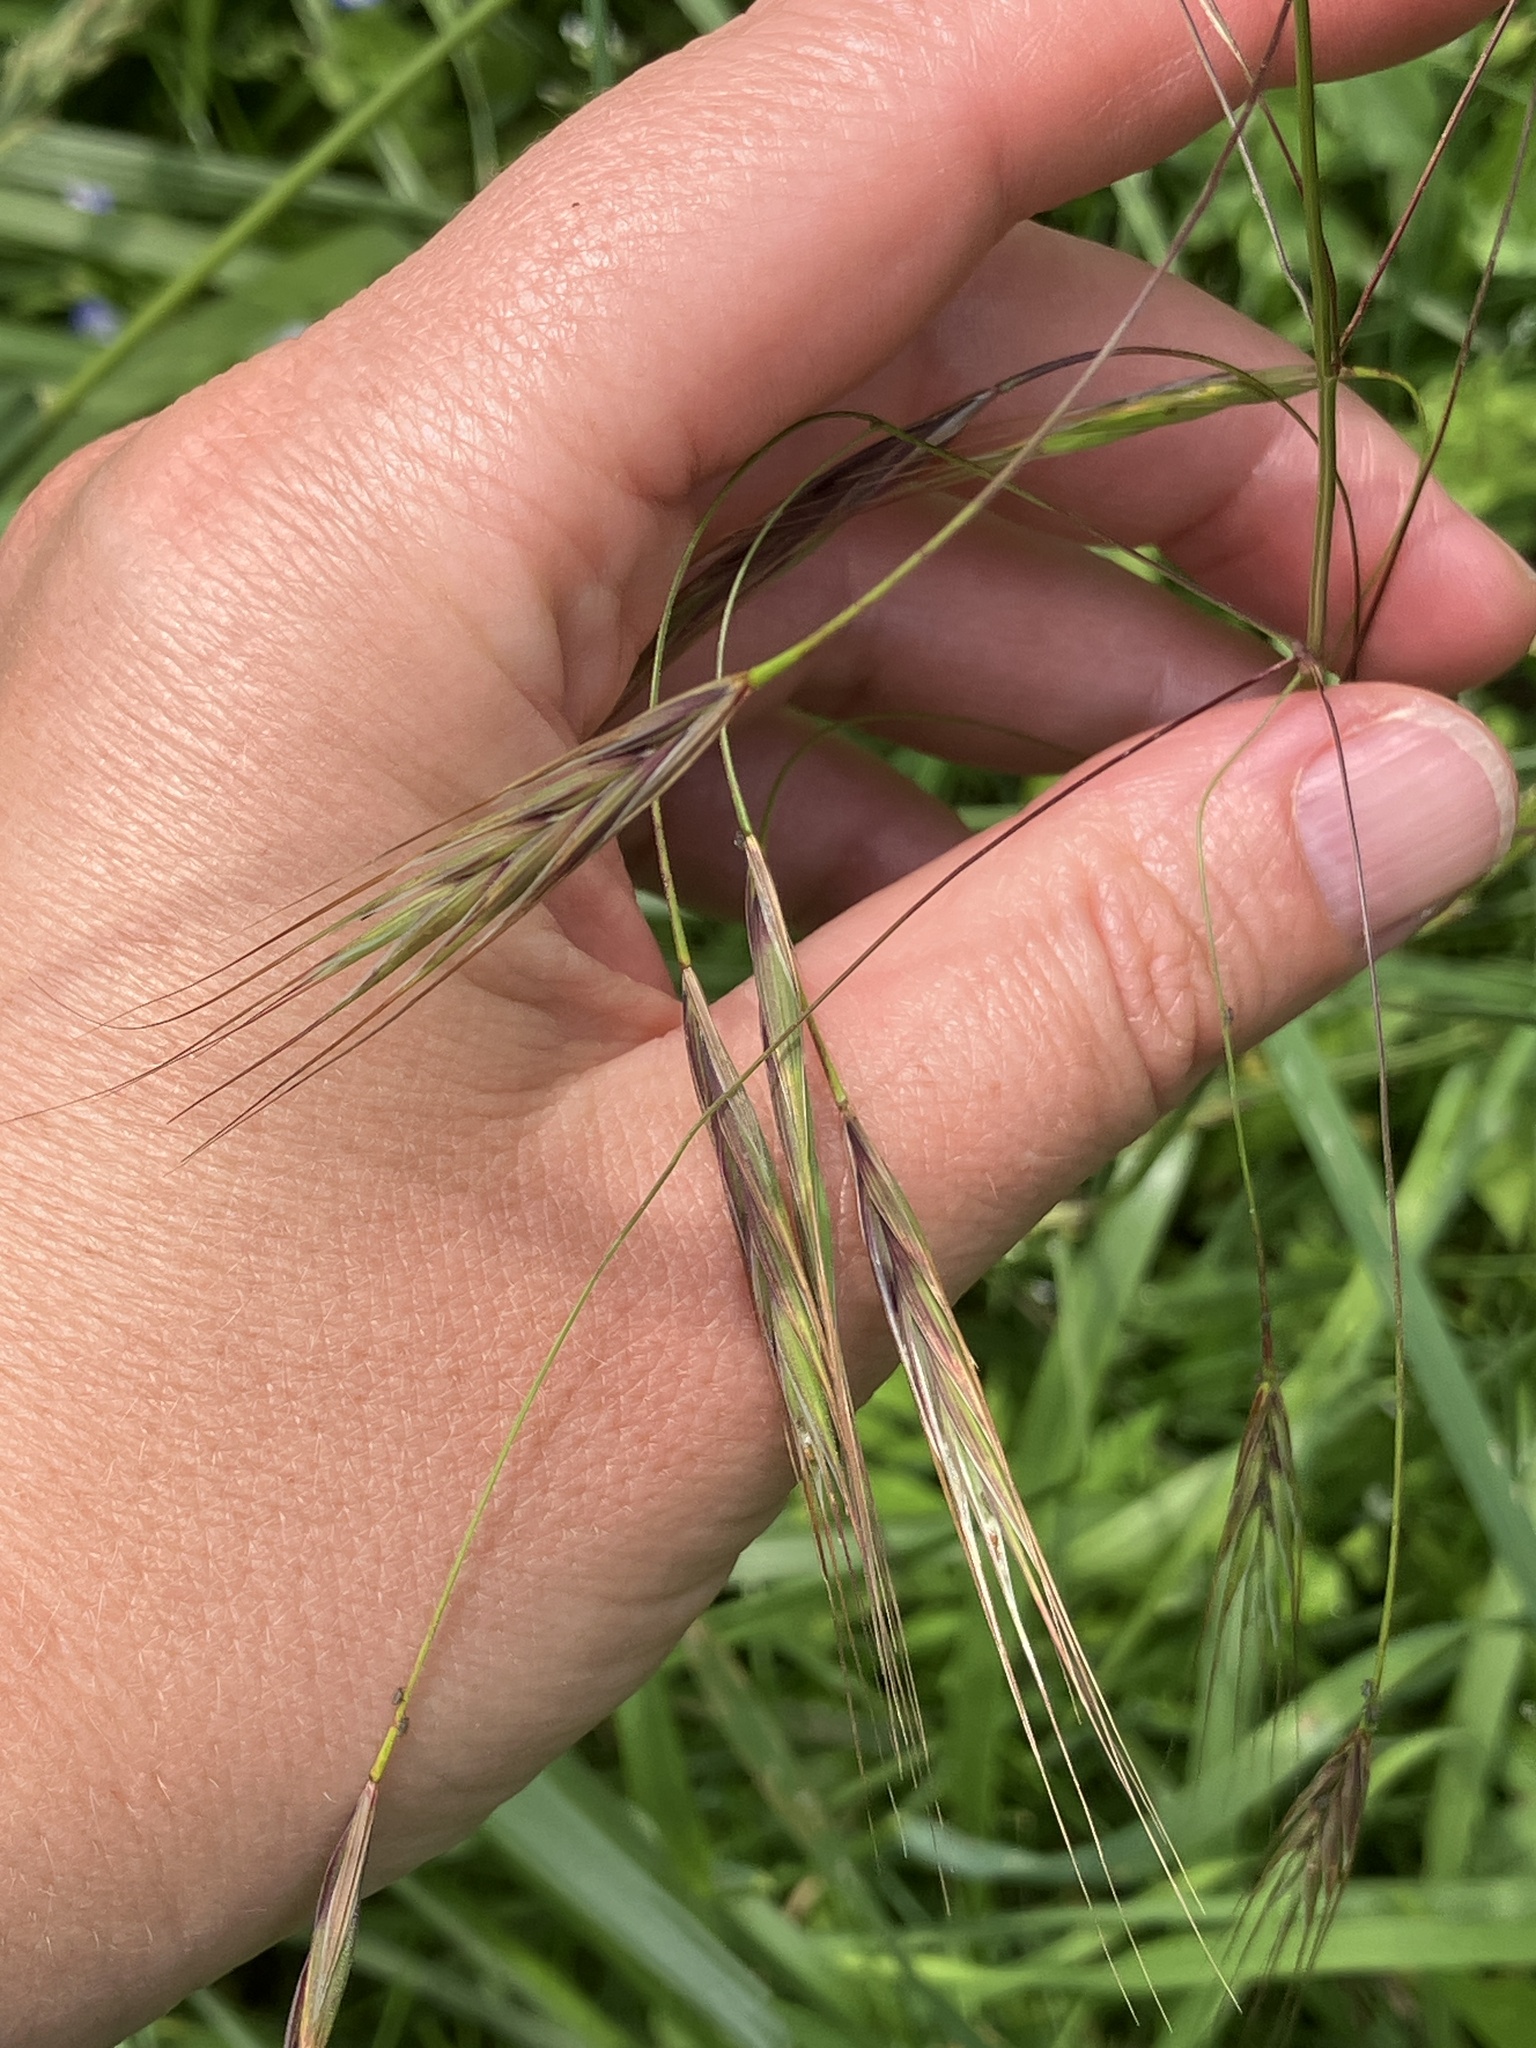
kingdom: Plantae
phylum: Tracheophyta
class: Liliopsida
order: Poales
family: Poaceae
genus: Bromus
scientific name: Bromus sterilis
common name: Poverty brome
